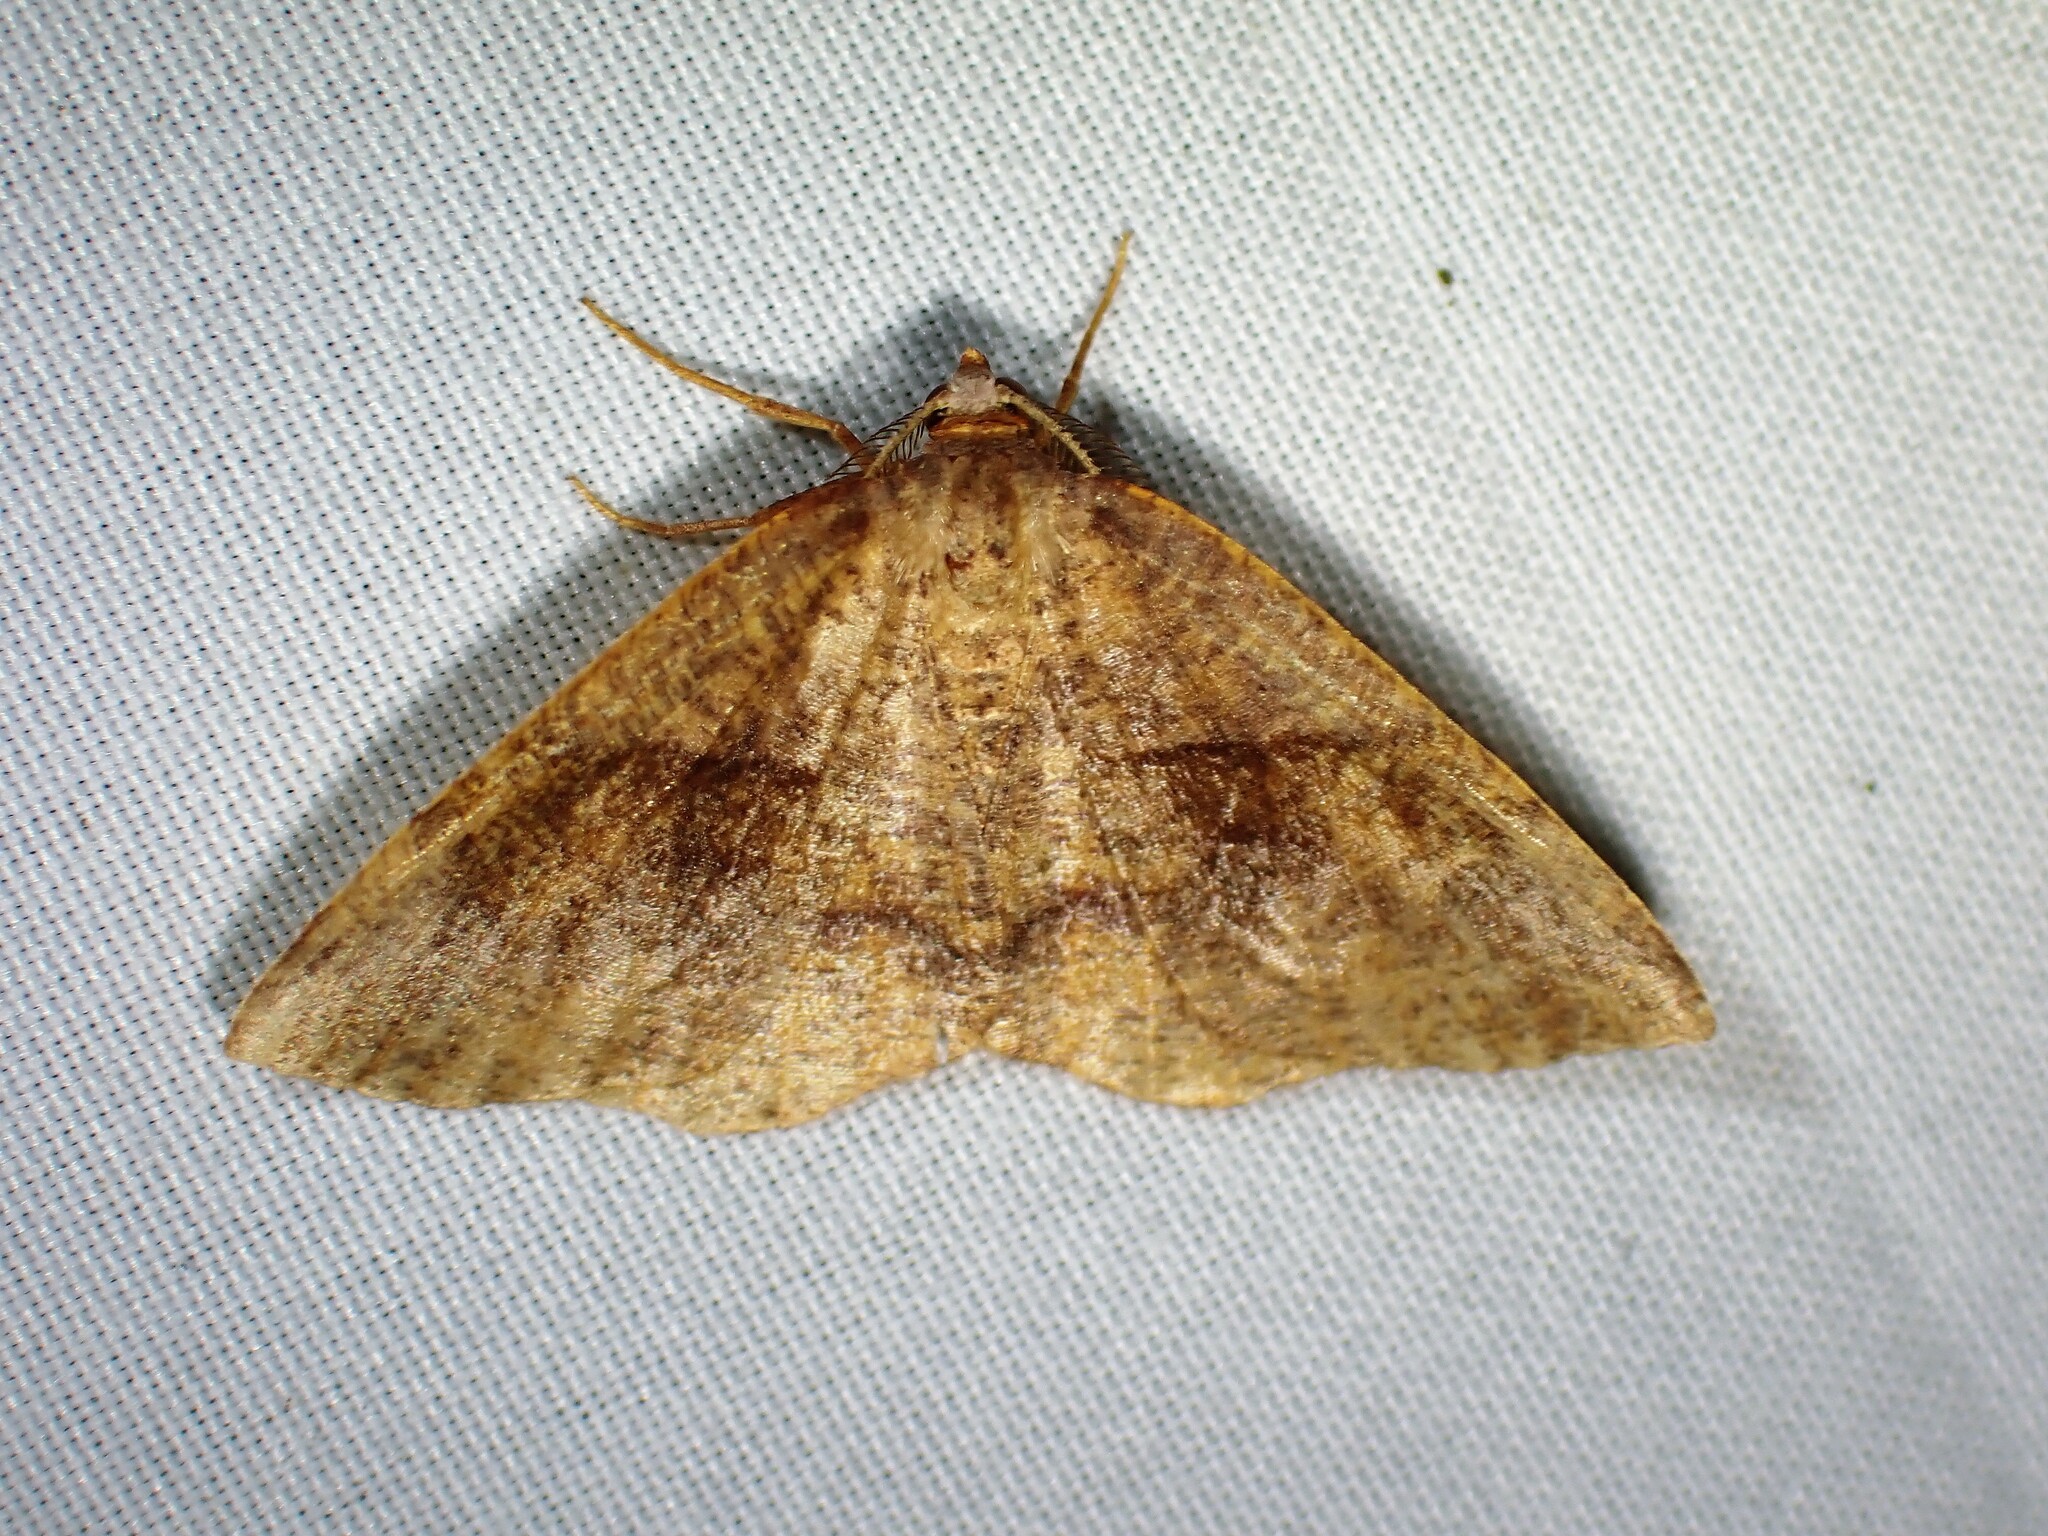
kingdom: Animalia
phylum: Arthropoda
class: Insecta
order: Lepidoptera
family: Geometridae
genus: Plagodis
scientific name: Plagodis pulveraria
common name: Barred umber
